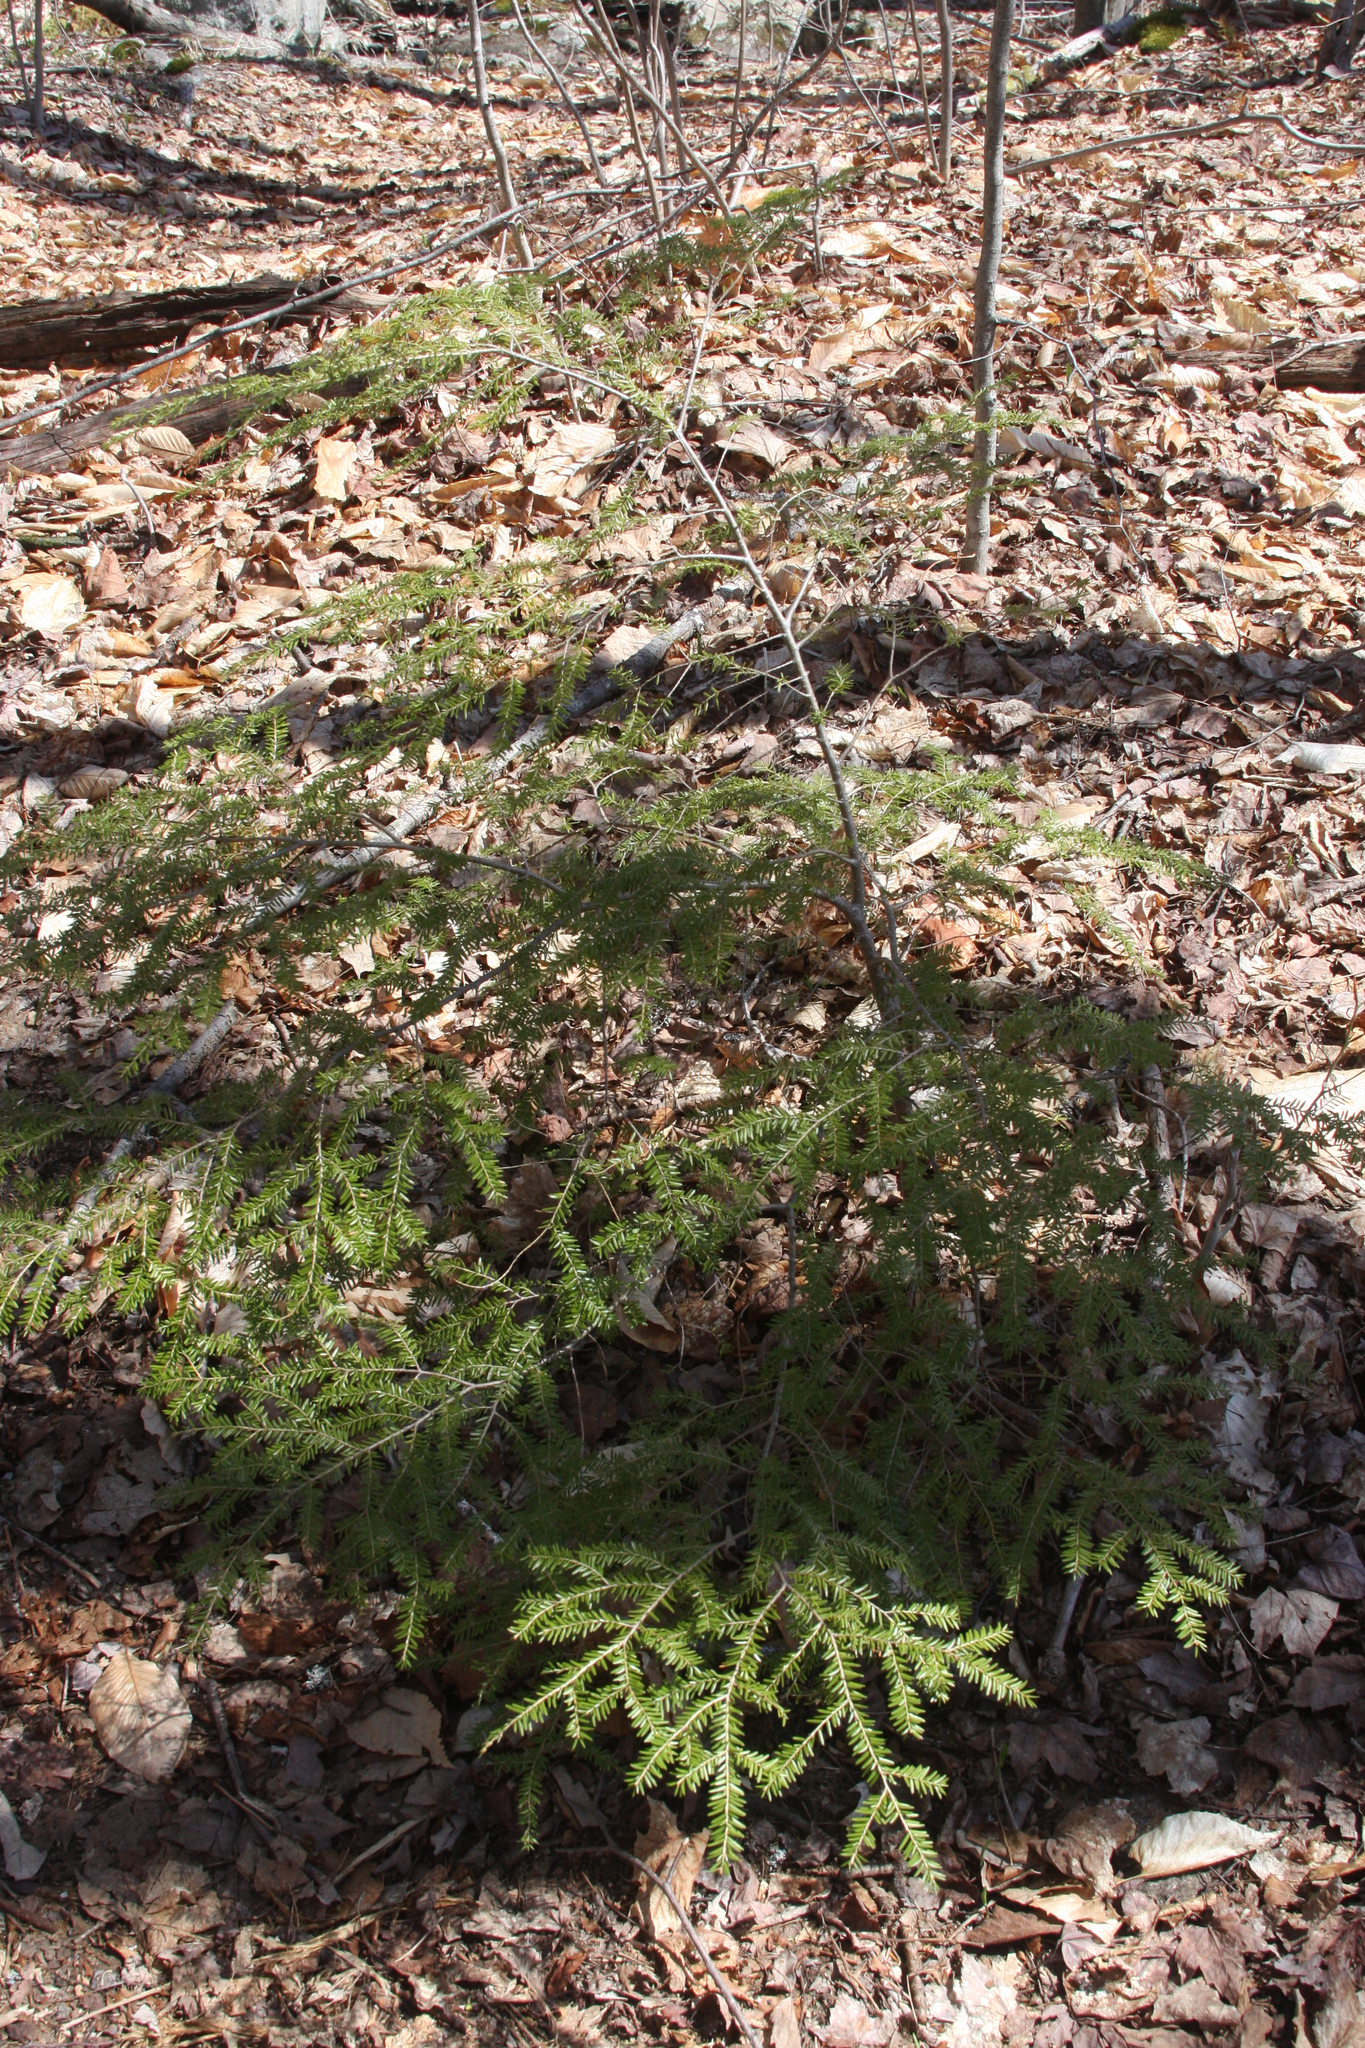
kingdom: Plantae
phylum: Tracheophyta
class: Pinopsida
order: Pinales
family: Pinaceae
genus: Tsuga
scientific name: Tsuga canadensis
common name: Eastern hemlock
